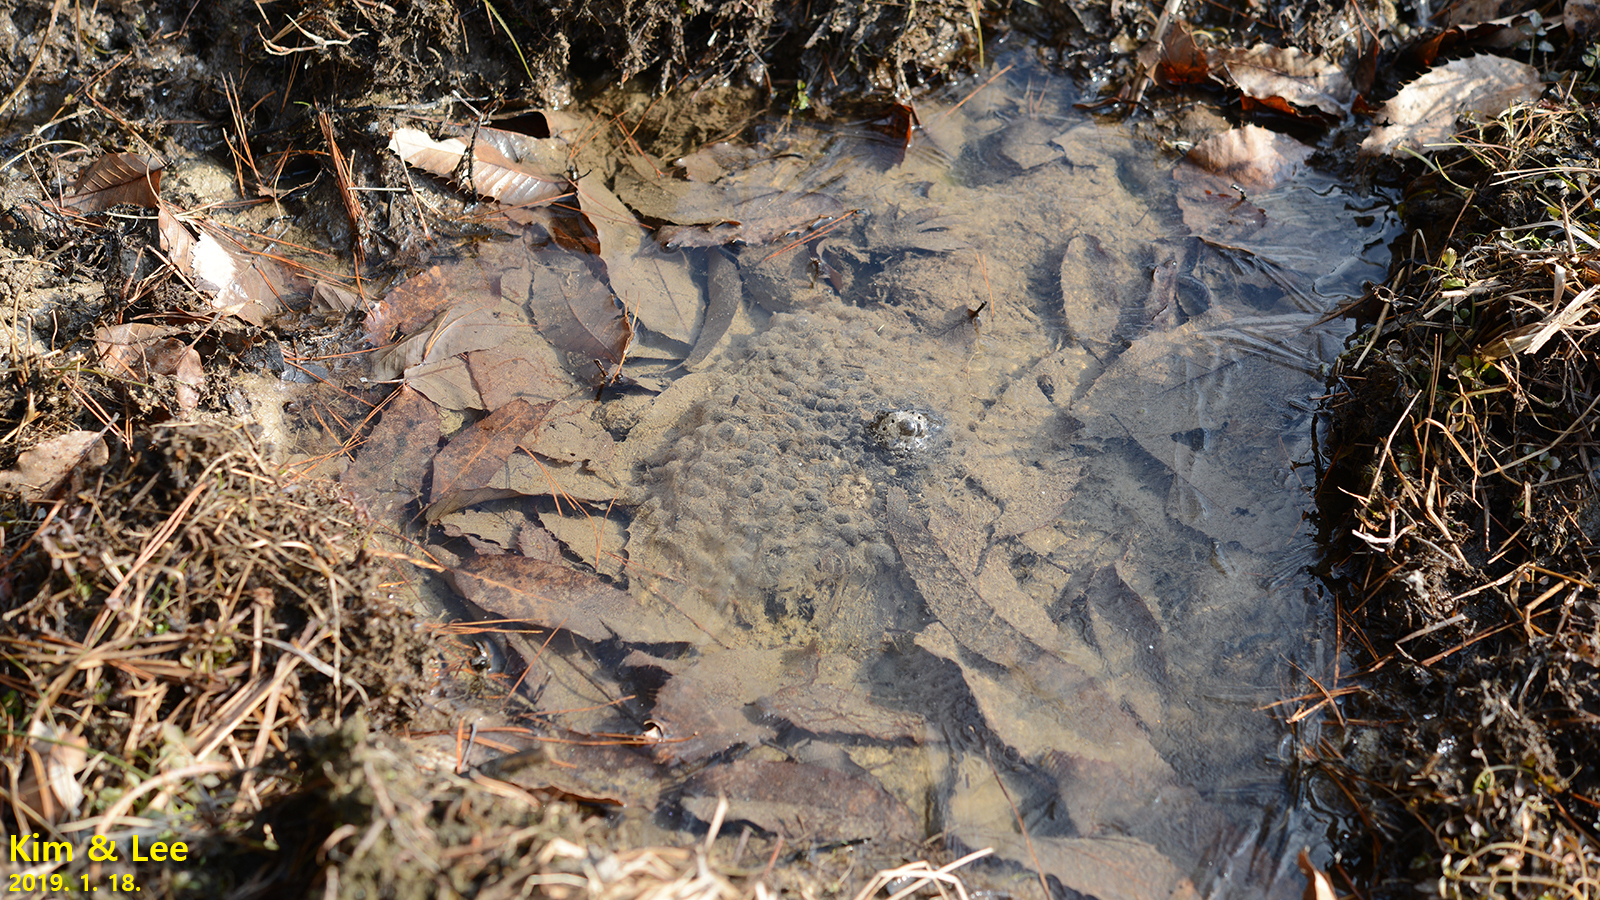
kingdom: Animalia
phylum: Chordata
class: Amphibia
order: Anura
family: Ranidae
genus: Rana
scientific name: Rana uenoi
